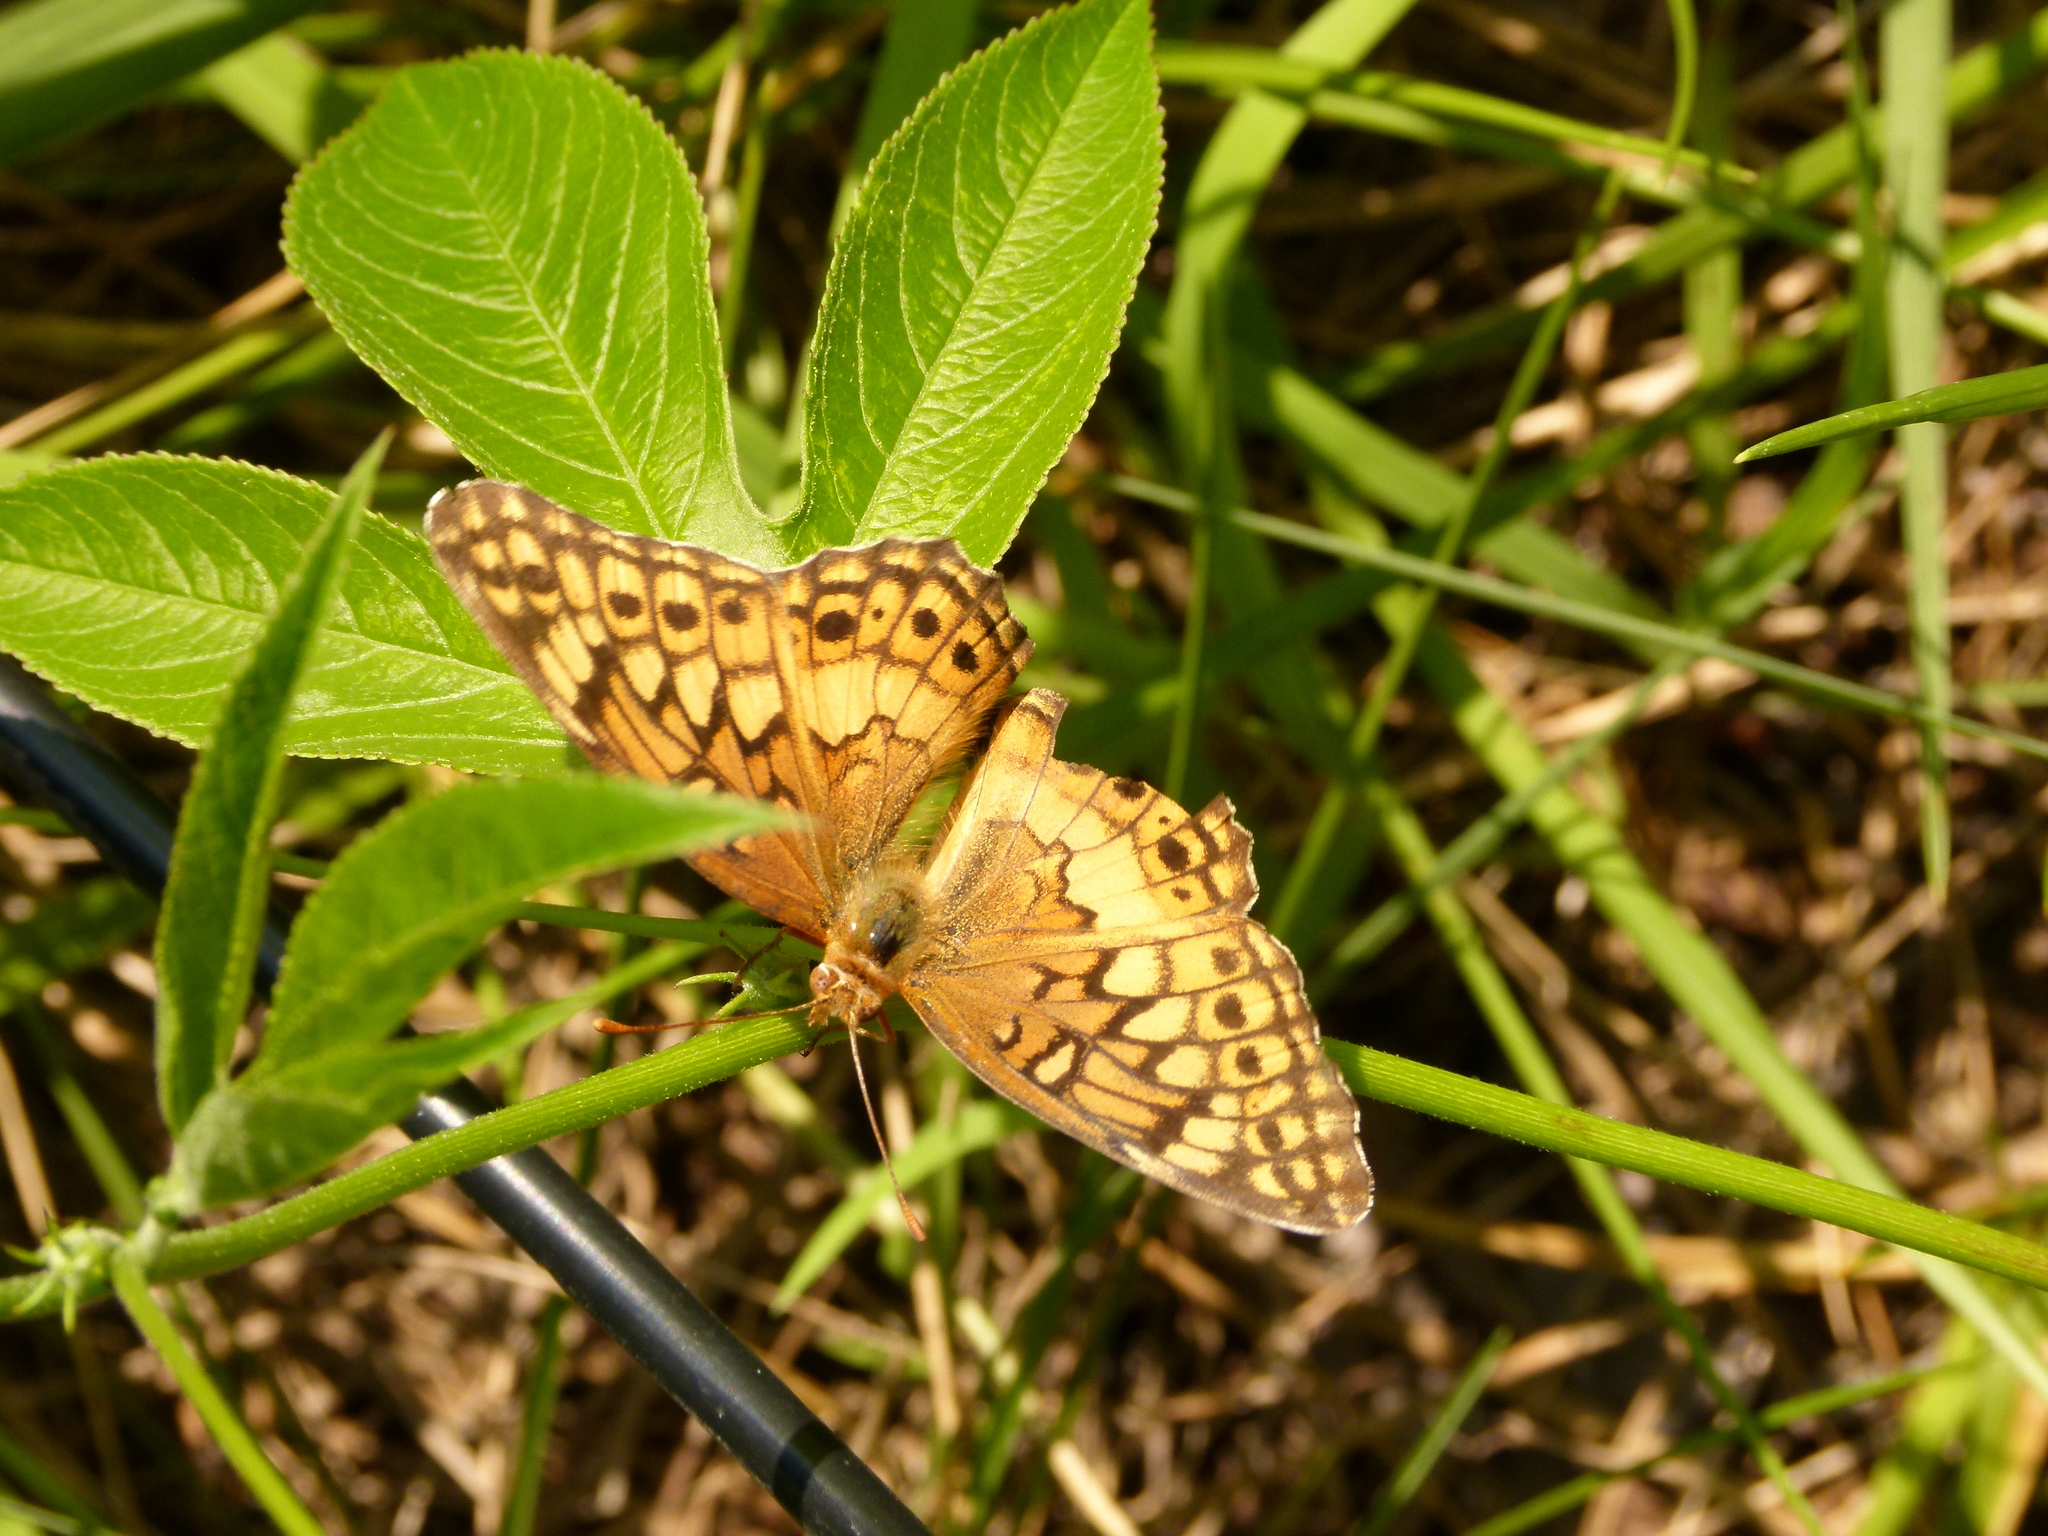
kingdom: Animalia
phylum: Arthropoda
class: Insecta
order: Lepidoptera
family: Nymphalidae
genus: Euptoieta
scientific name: Euptoieta claudia
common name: Variegated fritillary
